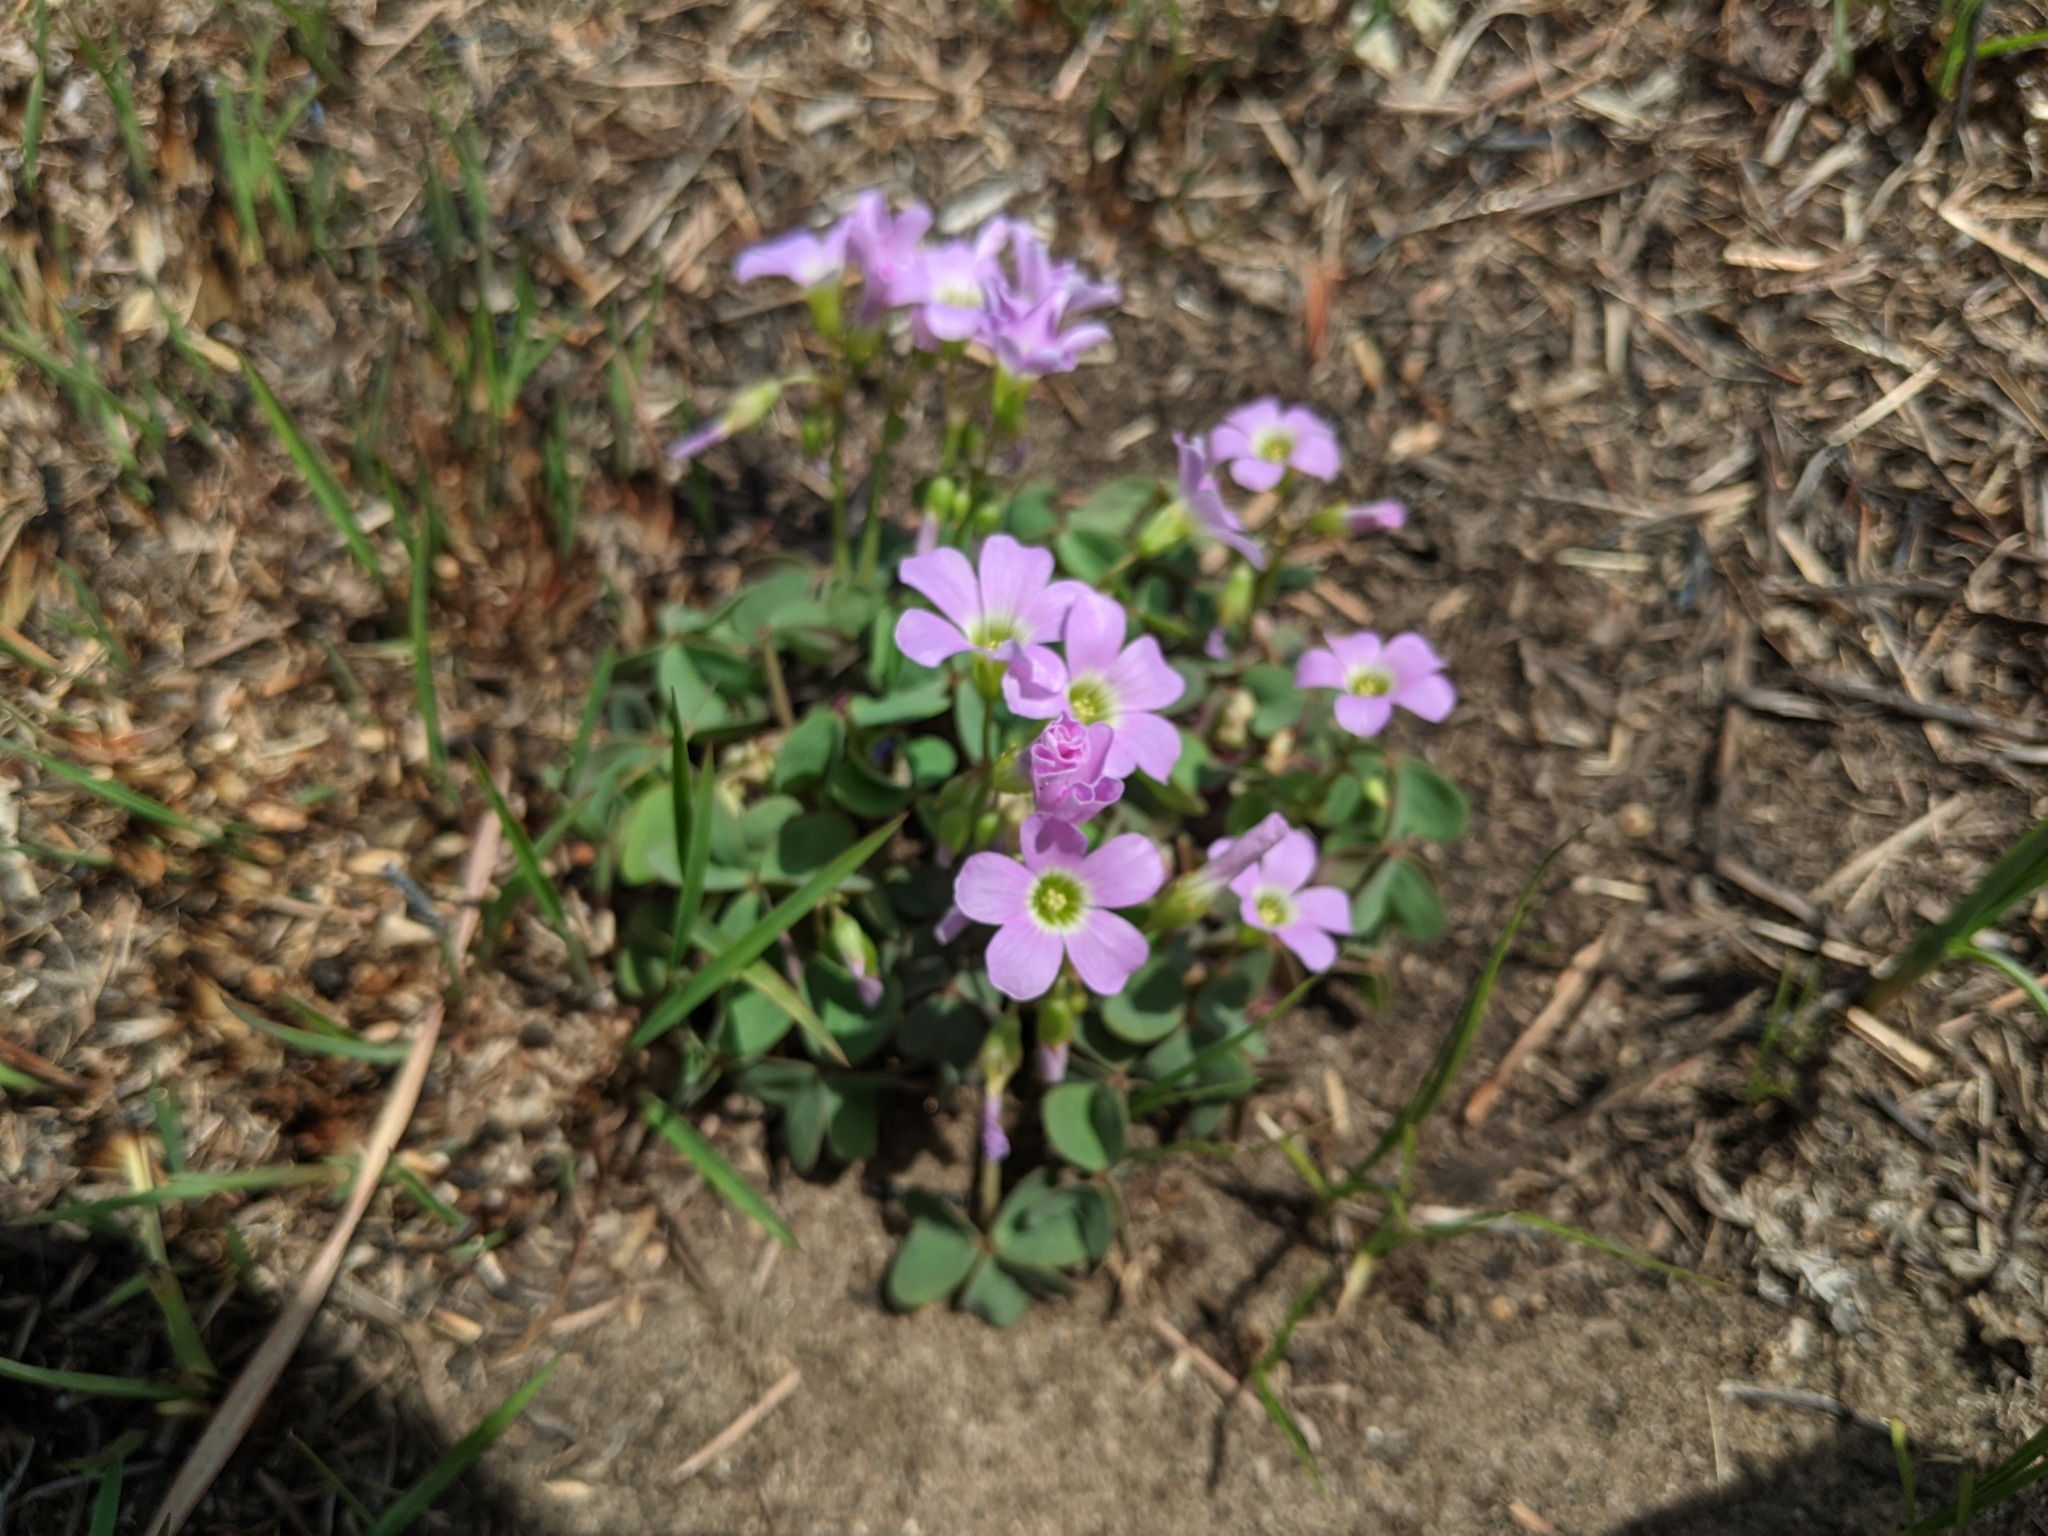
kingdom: Plantae
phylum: Tracheophyta
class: Magnoliopsida
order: Oxalidales
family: Oxalidaceae
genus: Oxalis
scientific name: Oxalis violacea
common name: Violet wood-sorrel
